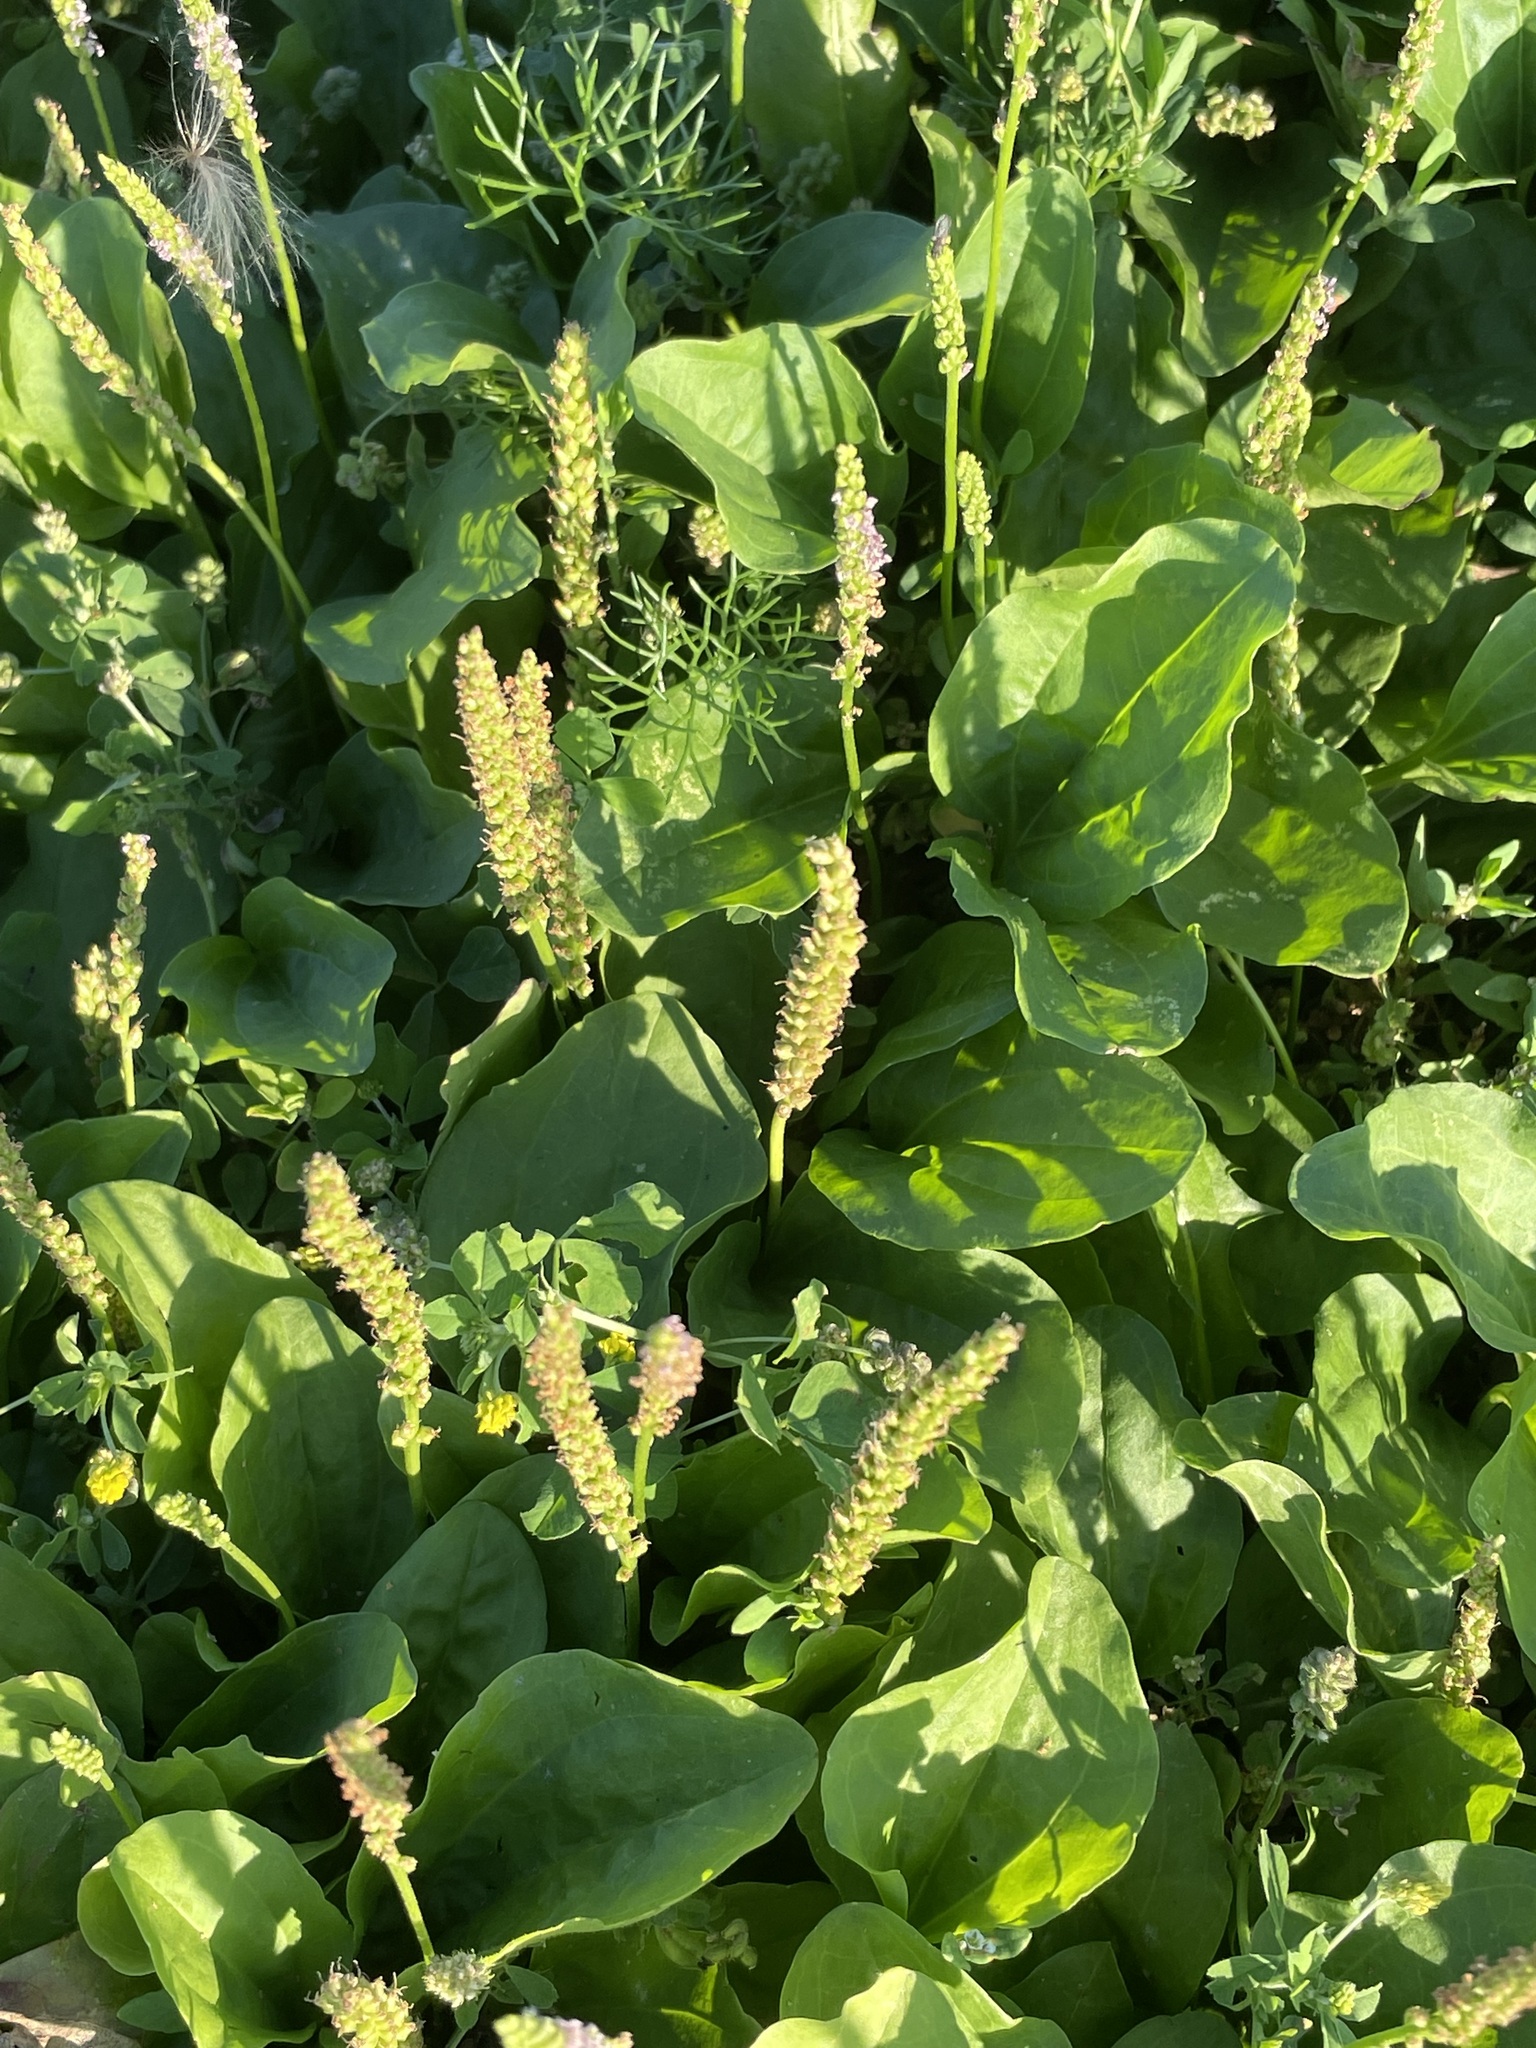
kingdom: Plantae
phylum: Tracheophyta
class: Magnoliopsida
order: Lamiales
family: Plantaginaceae
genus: Plantago
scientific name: Plantago major
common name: Common plantain
